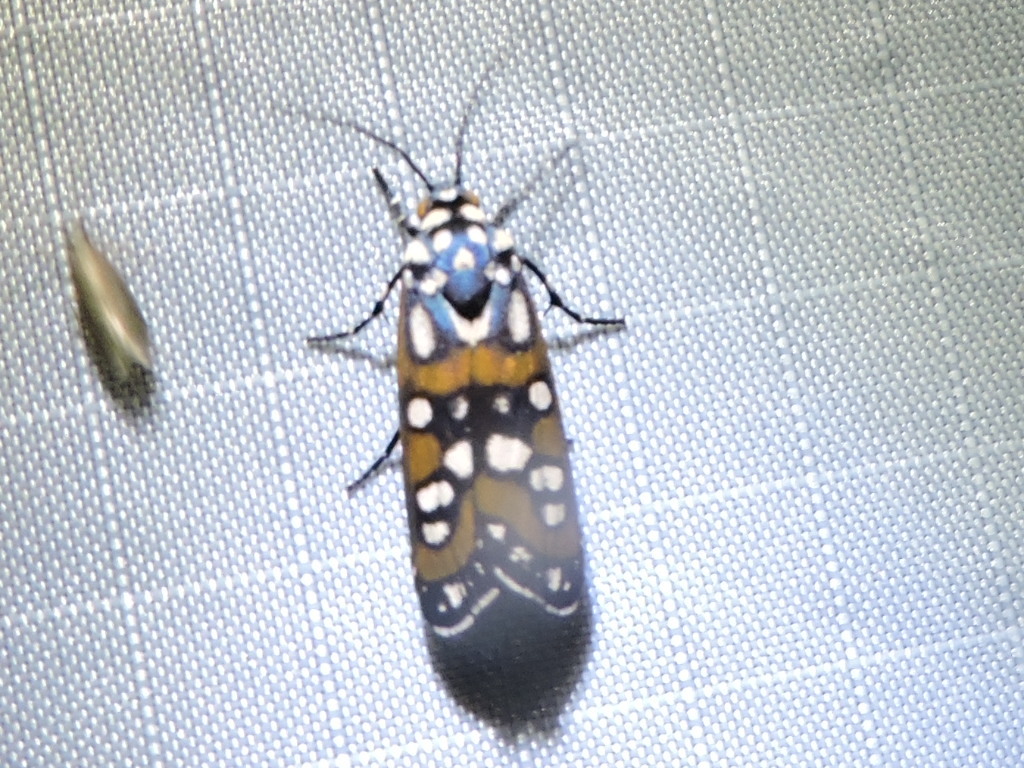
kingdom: Animalia
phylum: Arthropoda
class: Insecta
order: Lepidoptera
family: Noctuidae
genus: Cydosia
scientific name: Cydosia aurivitta
